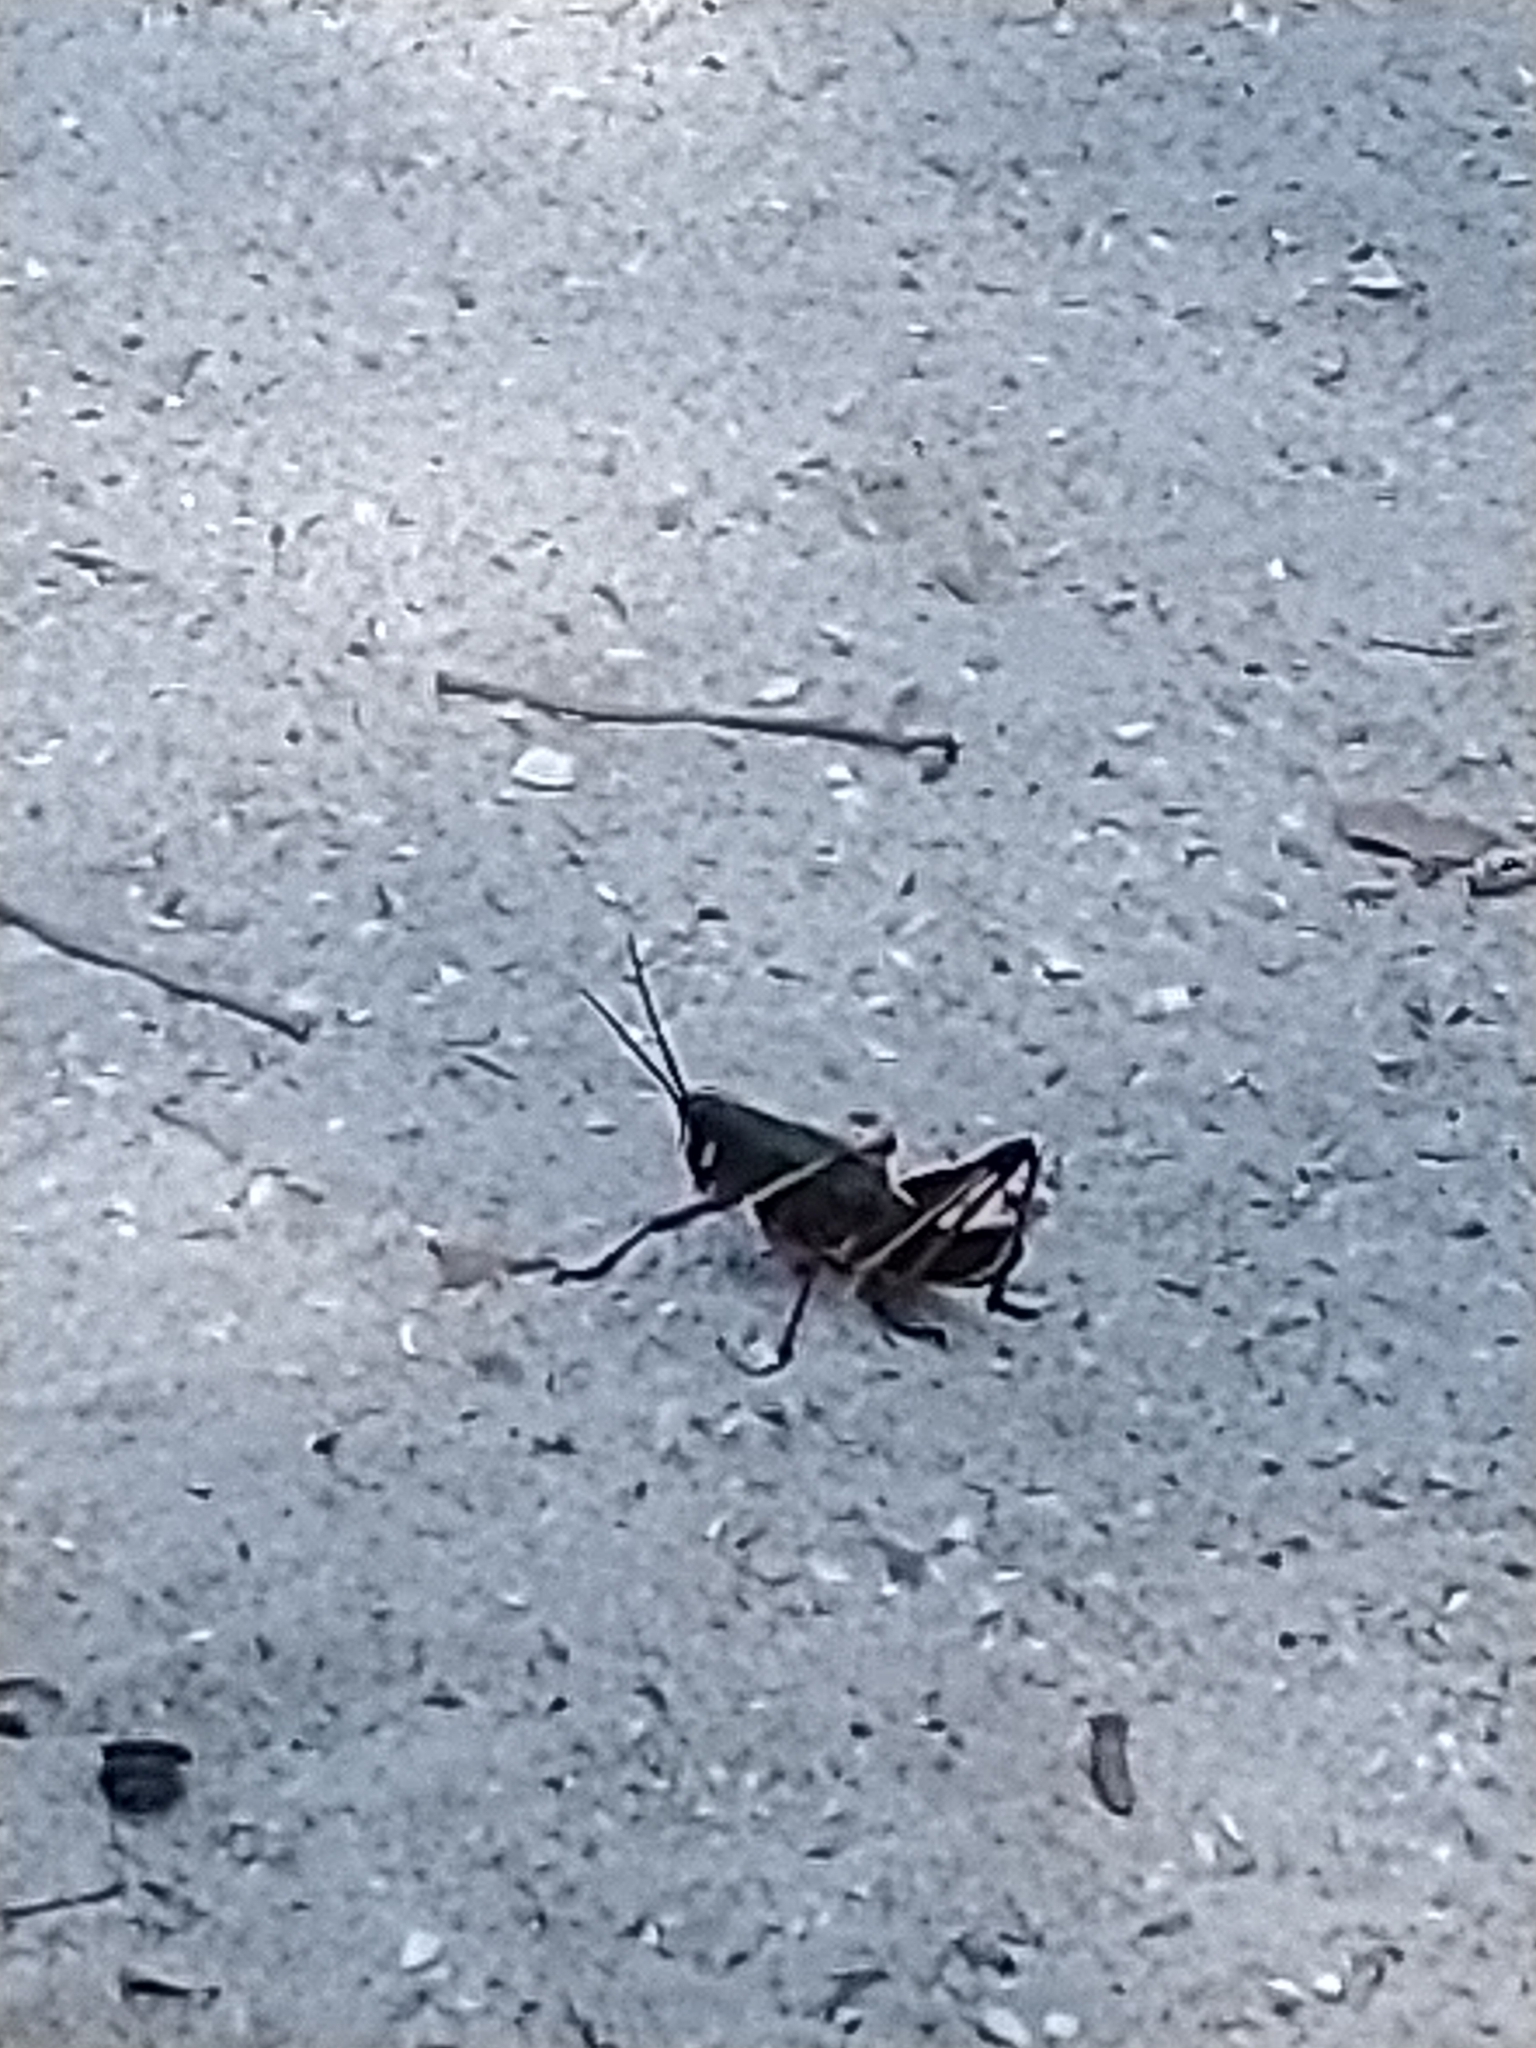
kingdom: Animalia
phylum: Arthropoda
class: Insecta
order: Orthoptera
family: Romaleidae
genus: Romalea
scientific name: Romalea microptera
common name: Eastern lubber grasshopper
